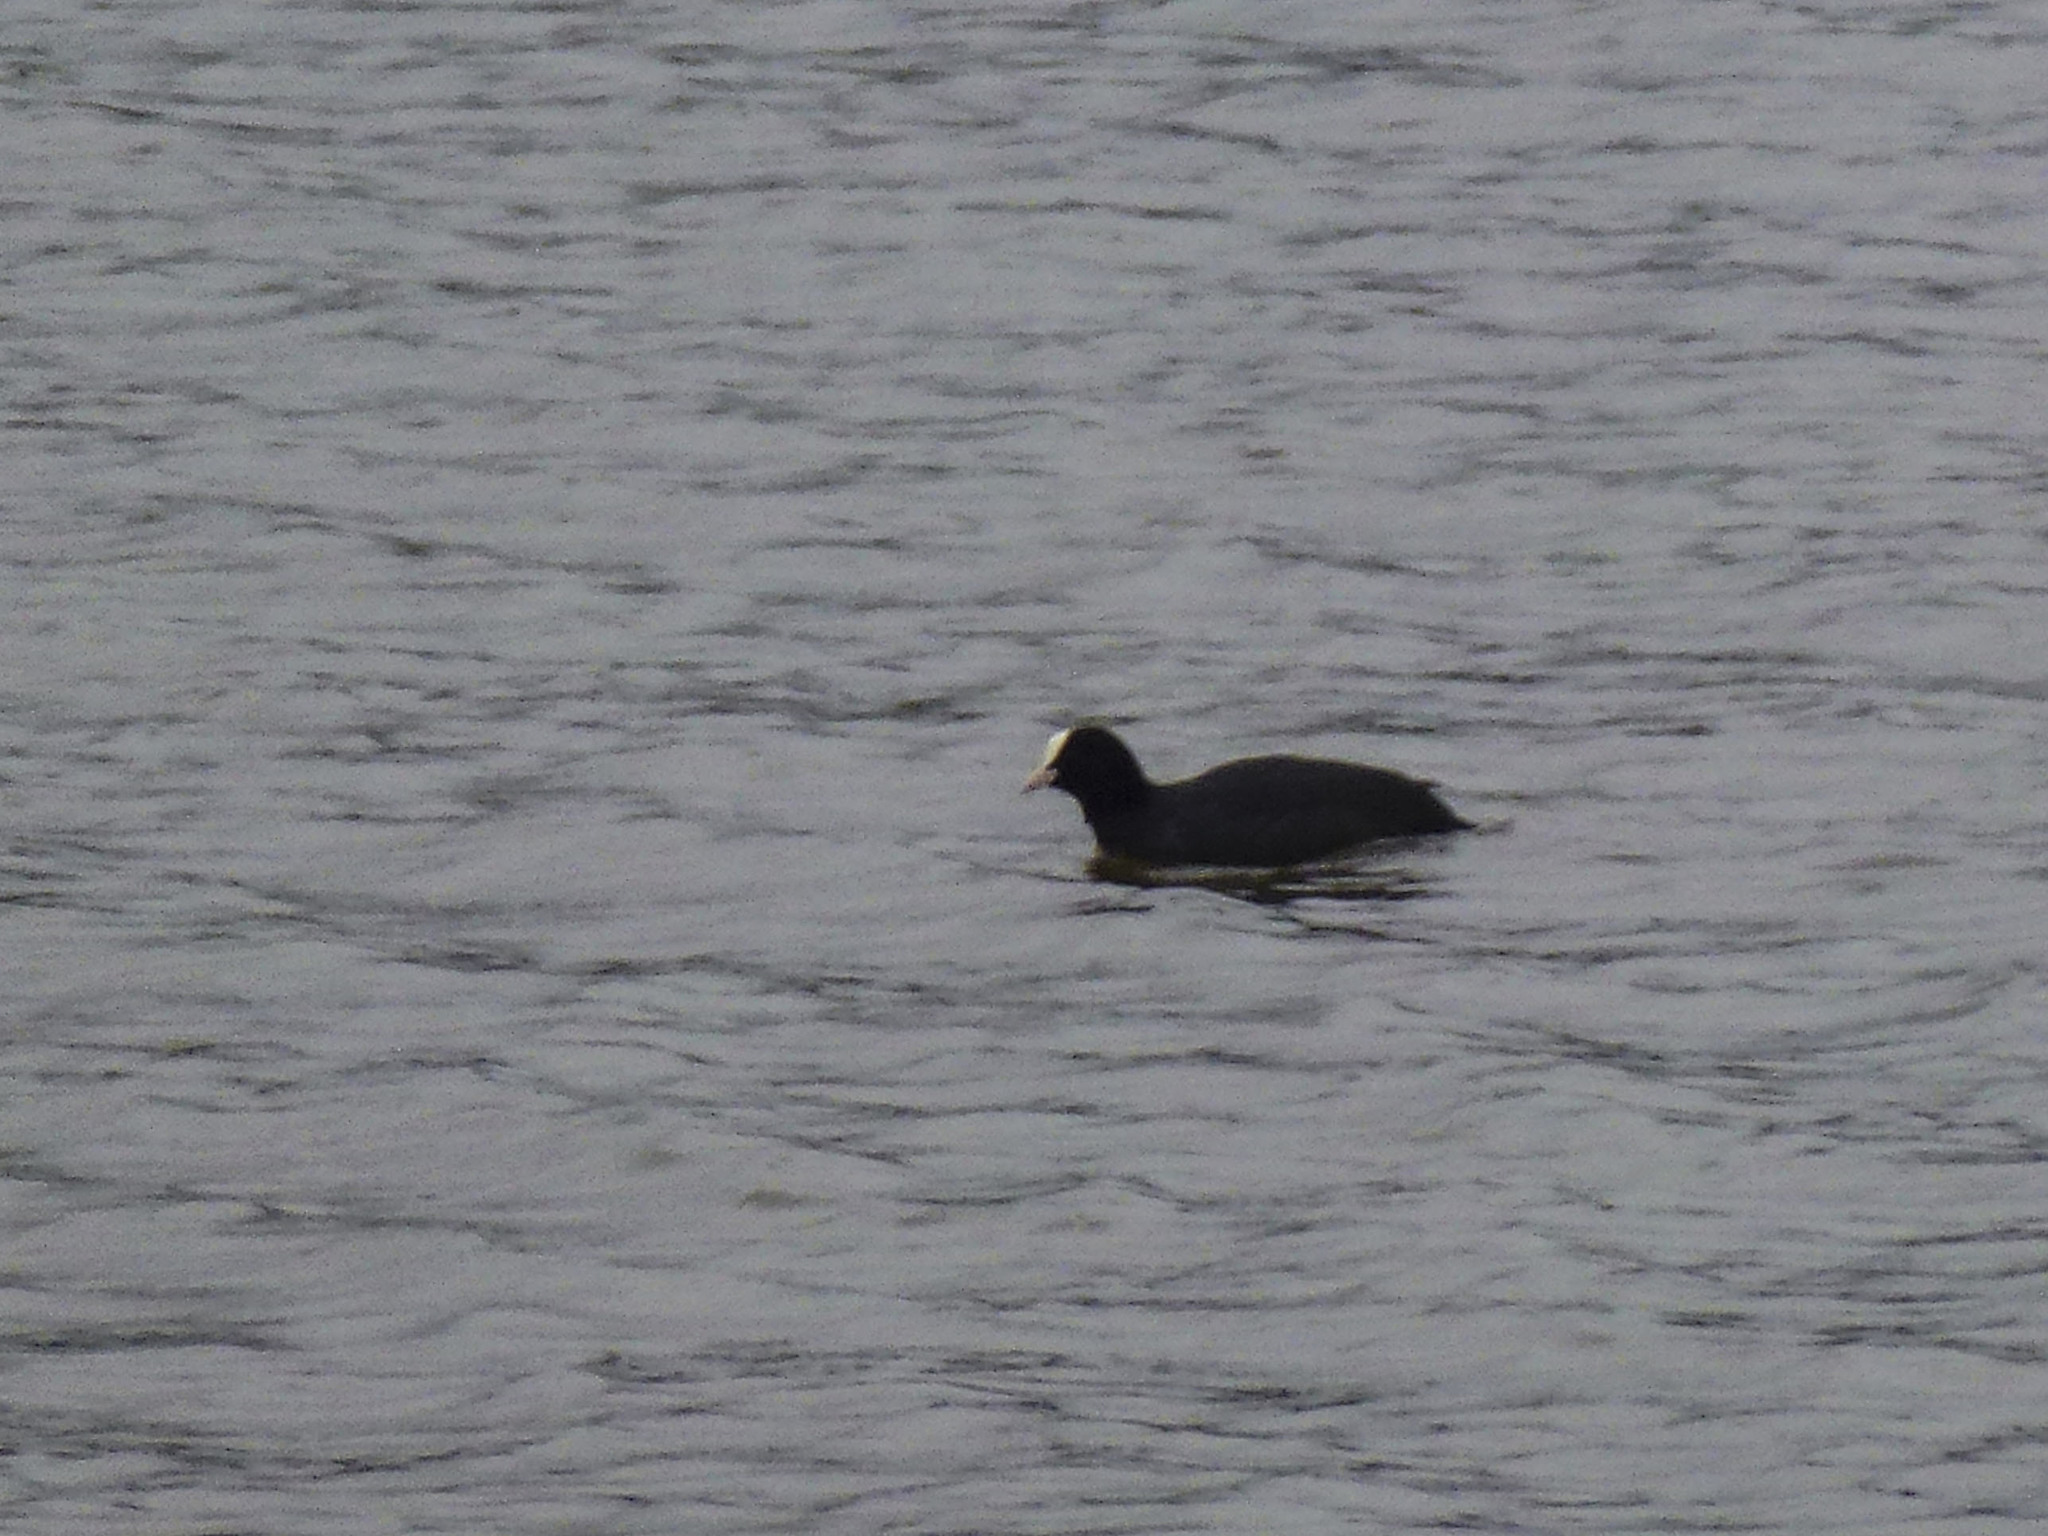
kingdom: Animalia
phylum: Chordata
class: Aves
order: Gruiformes
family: Rallidae
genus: Fulica
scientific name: Fulica atra
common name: Eurasian coot
